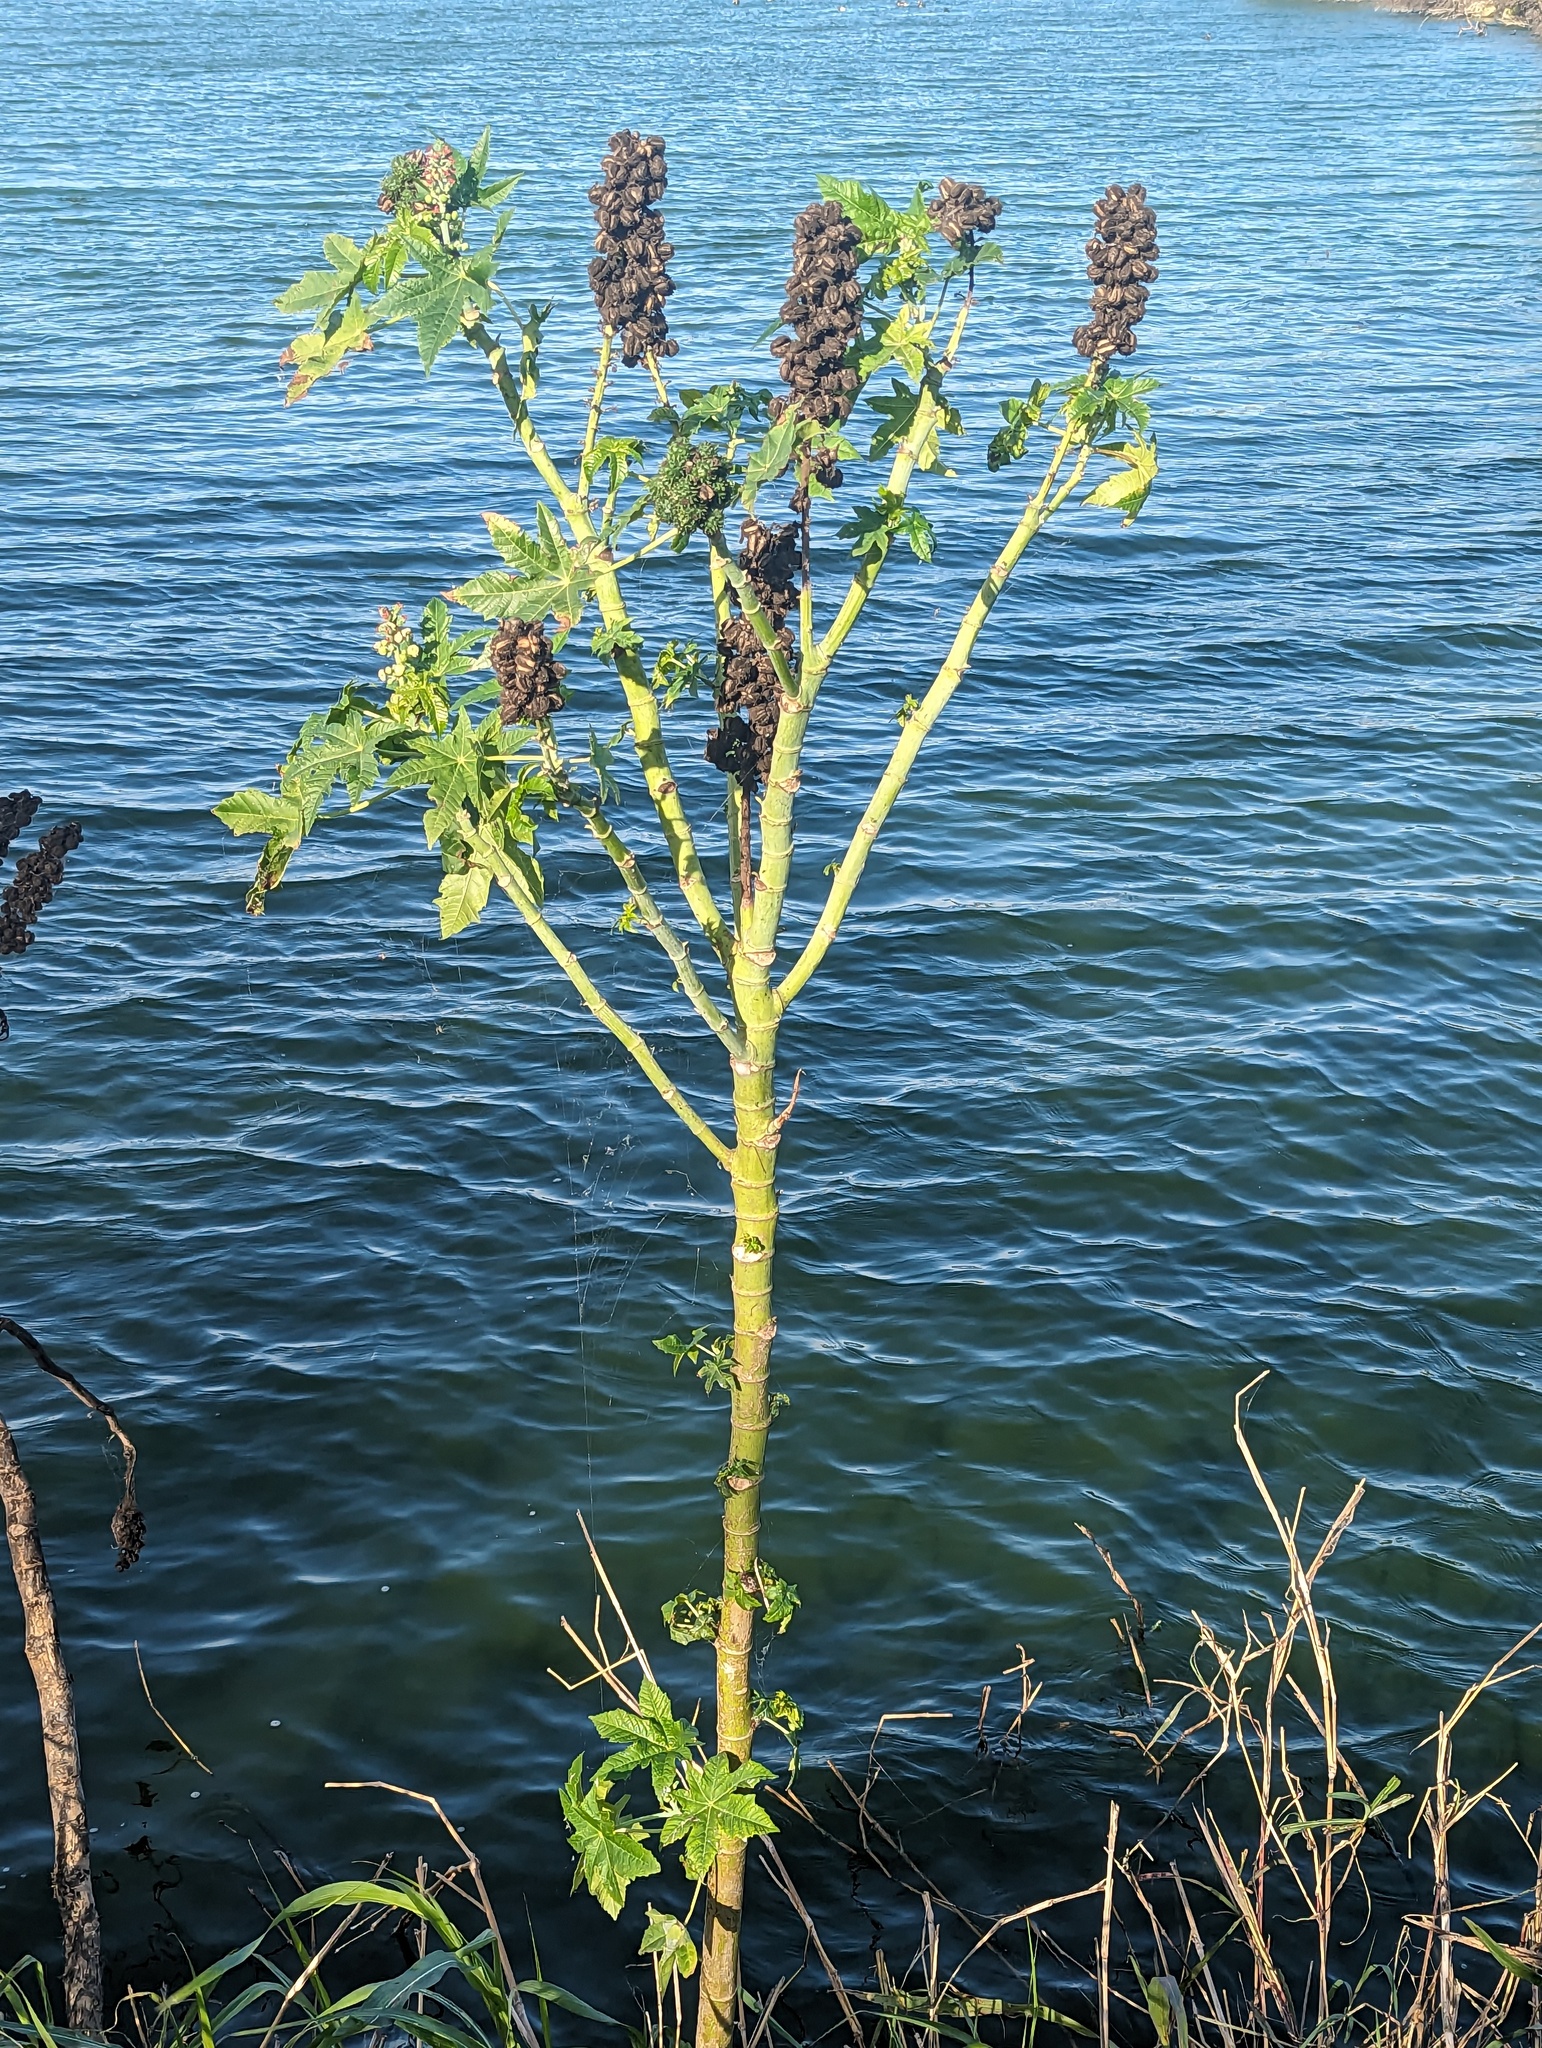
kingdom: Plantae
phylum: Tracheophyta
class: Magnoliopsida
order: Malpighiales
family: Euphorbiaceae
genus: Ricinus
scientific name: Ricinus communis
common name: Castor-oil-plant
